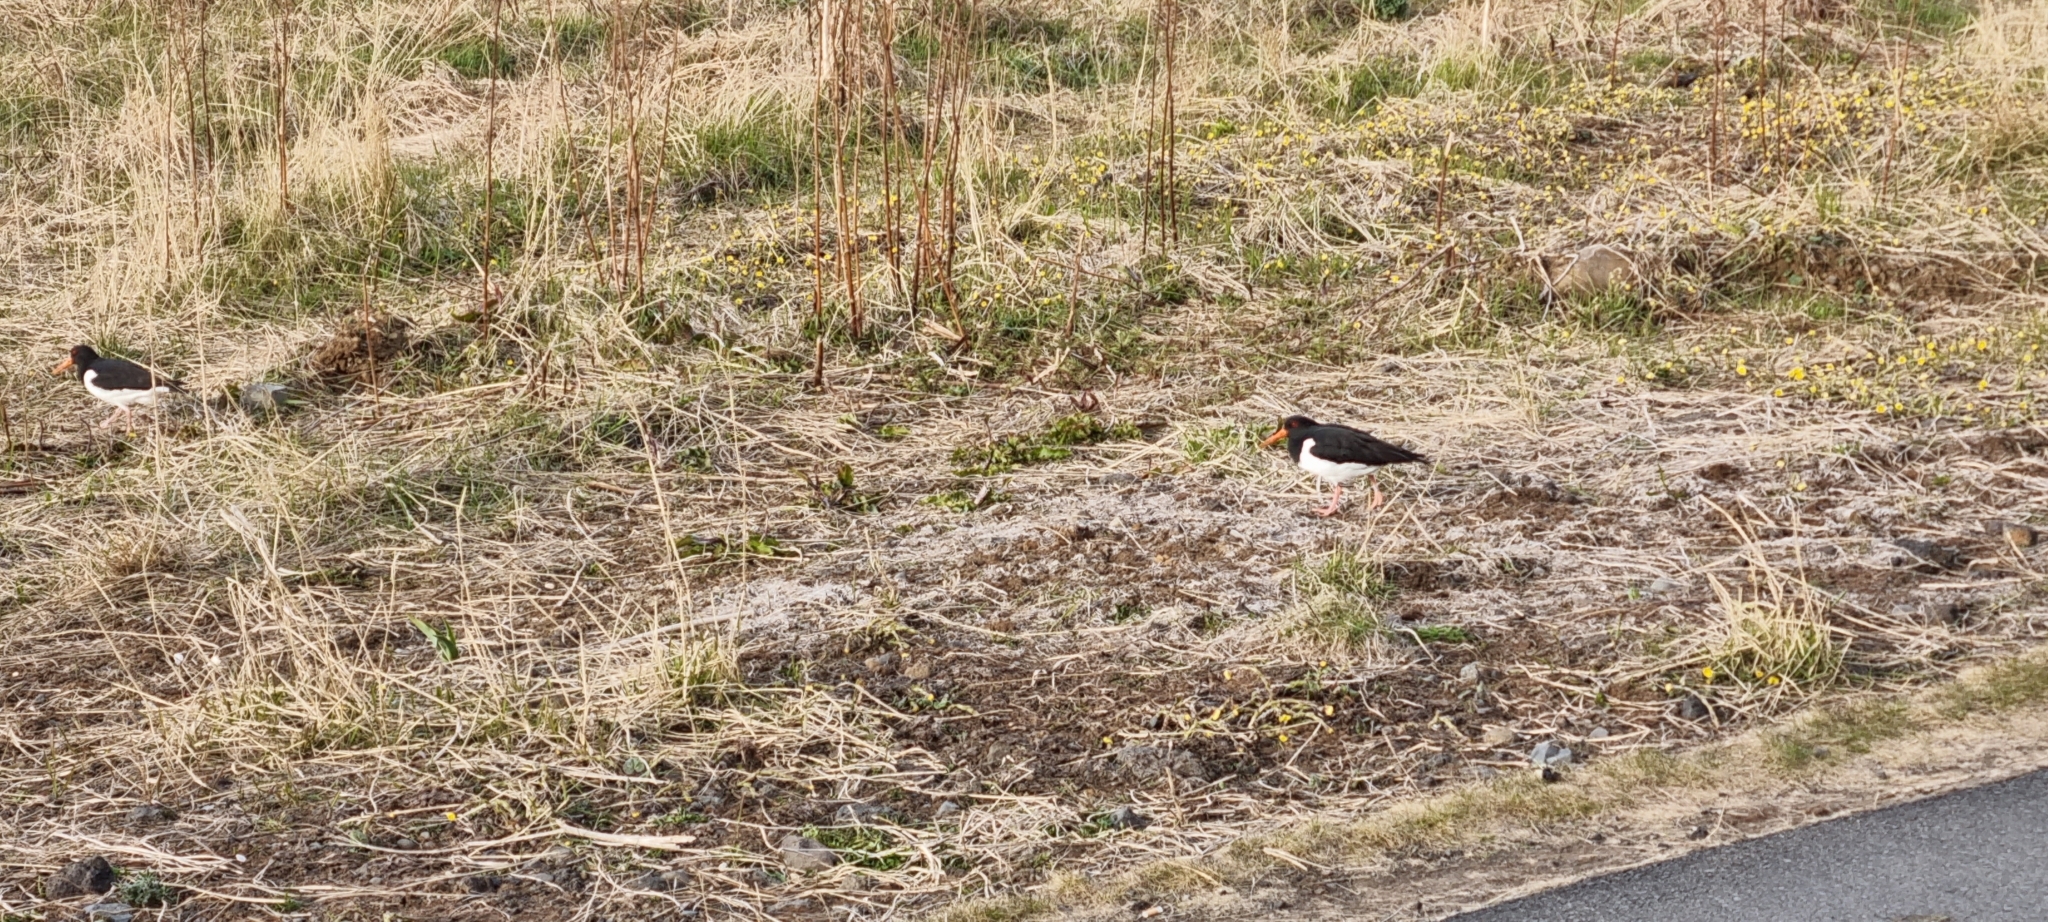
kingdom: Animalia
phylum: Chordata
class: Aves
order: Charadriiformes
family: Haematopodidae
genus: Haematopus
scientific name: Haematopus ostralegus
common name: Eurasian oystercatcher
